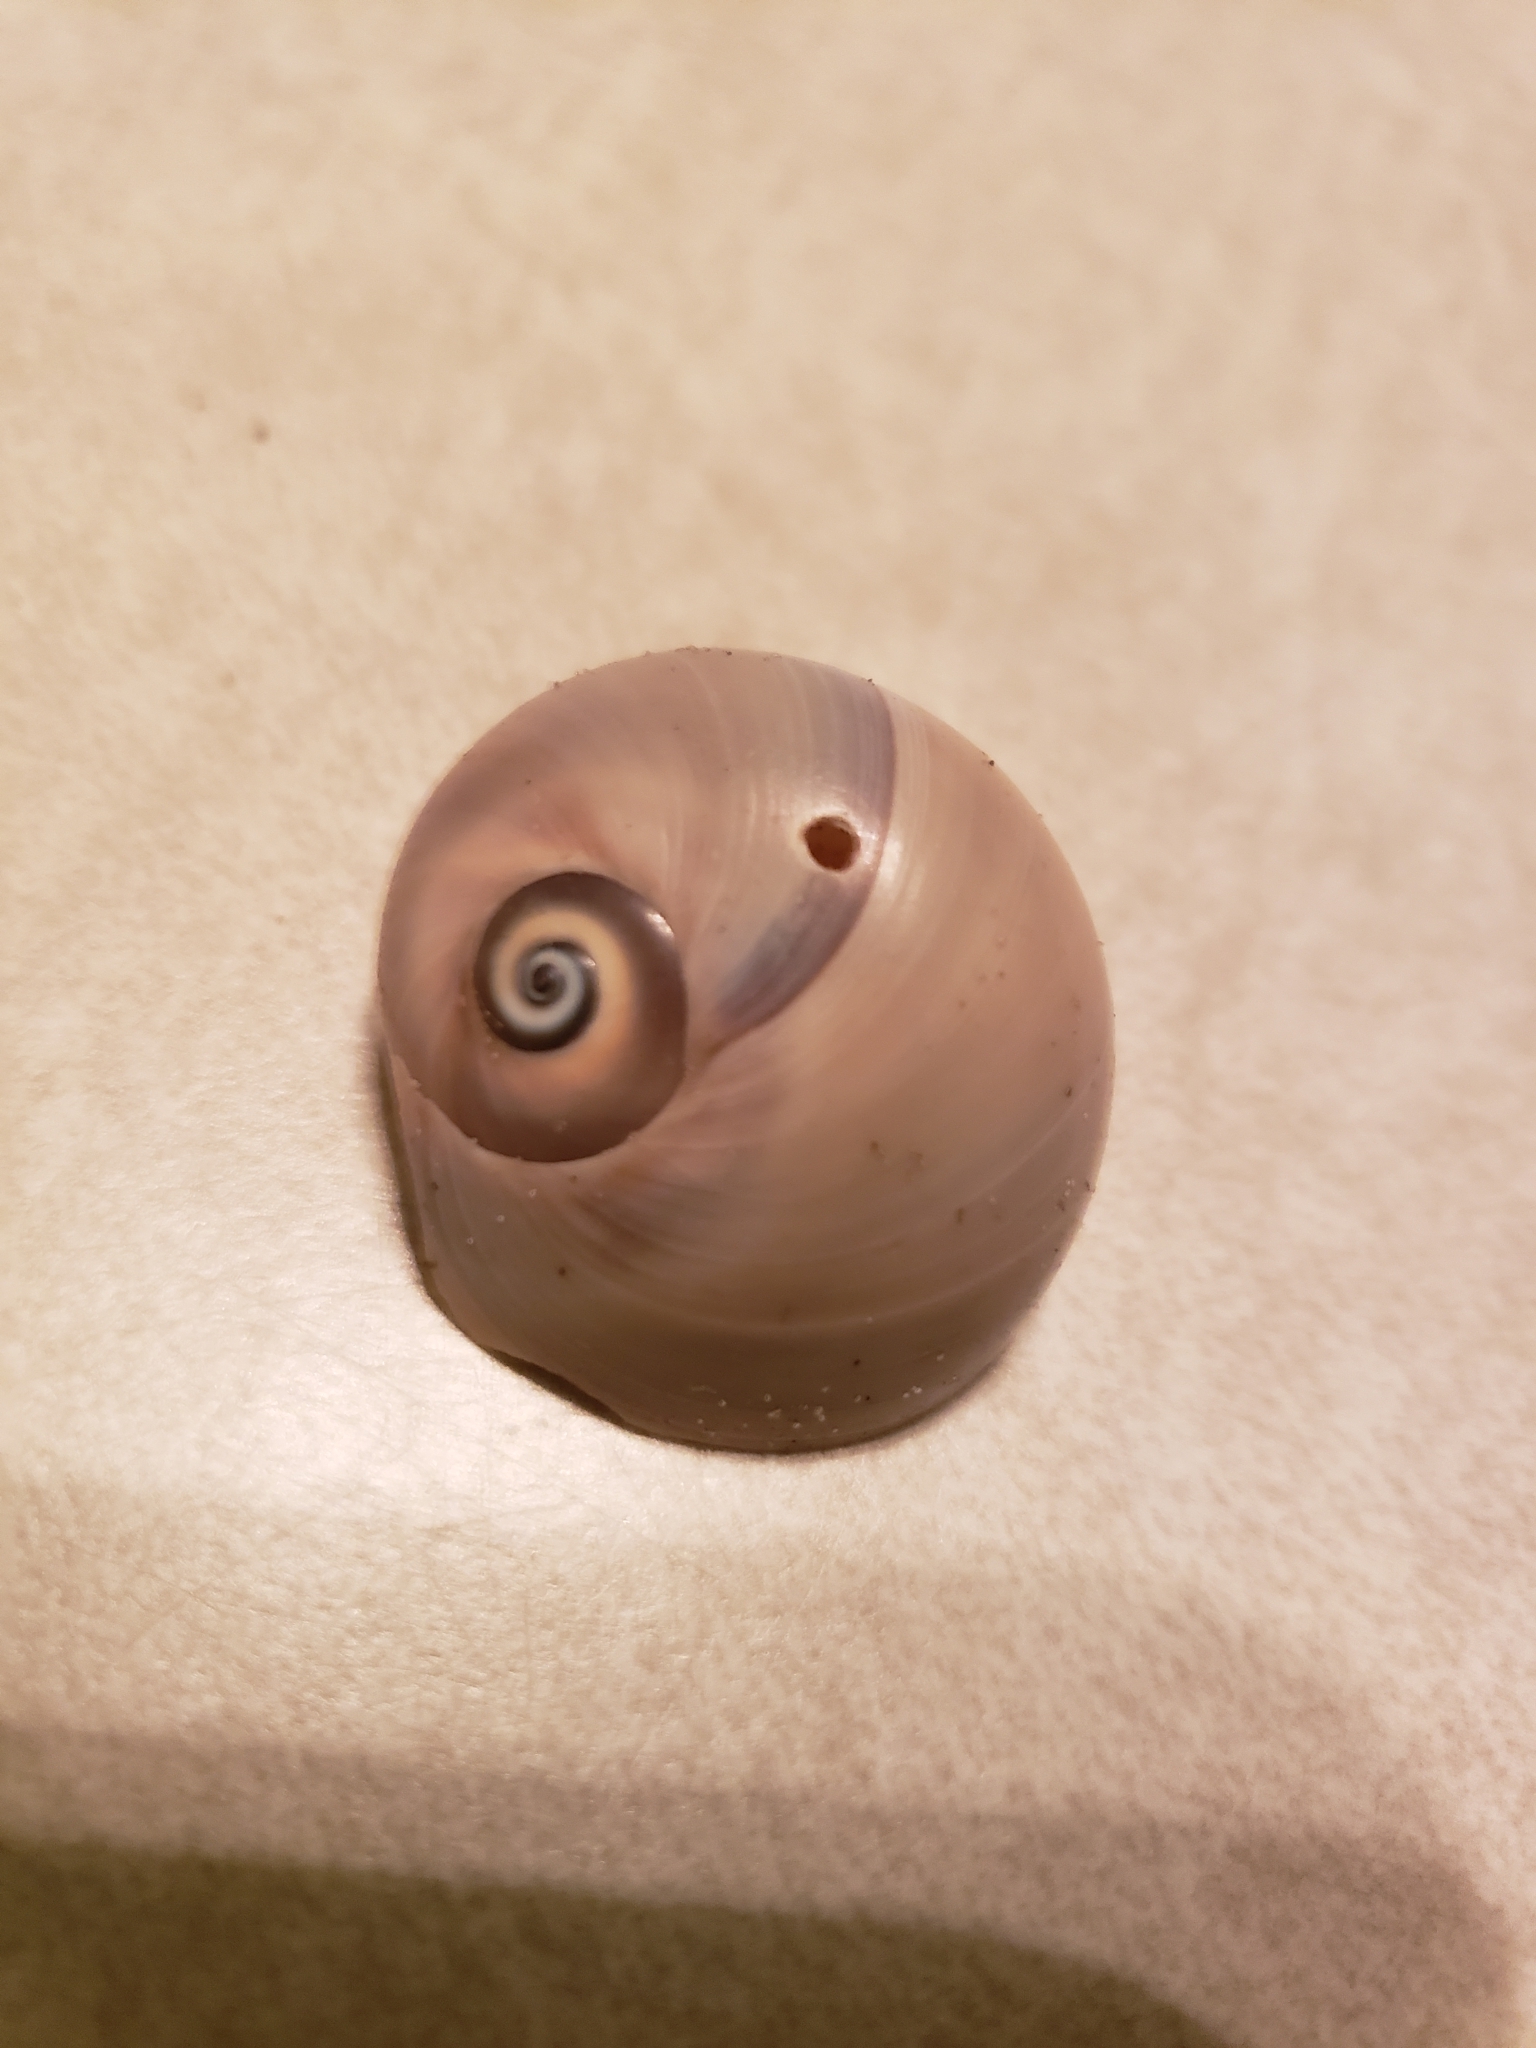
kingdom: Animalia
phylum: Mollusca
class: Gastropoda
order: Littorinimorpha
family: Naticidae
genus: Neverita
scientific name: Neverita duplicata
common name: Lobed moonsnail
